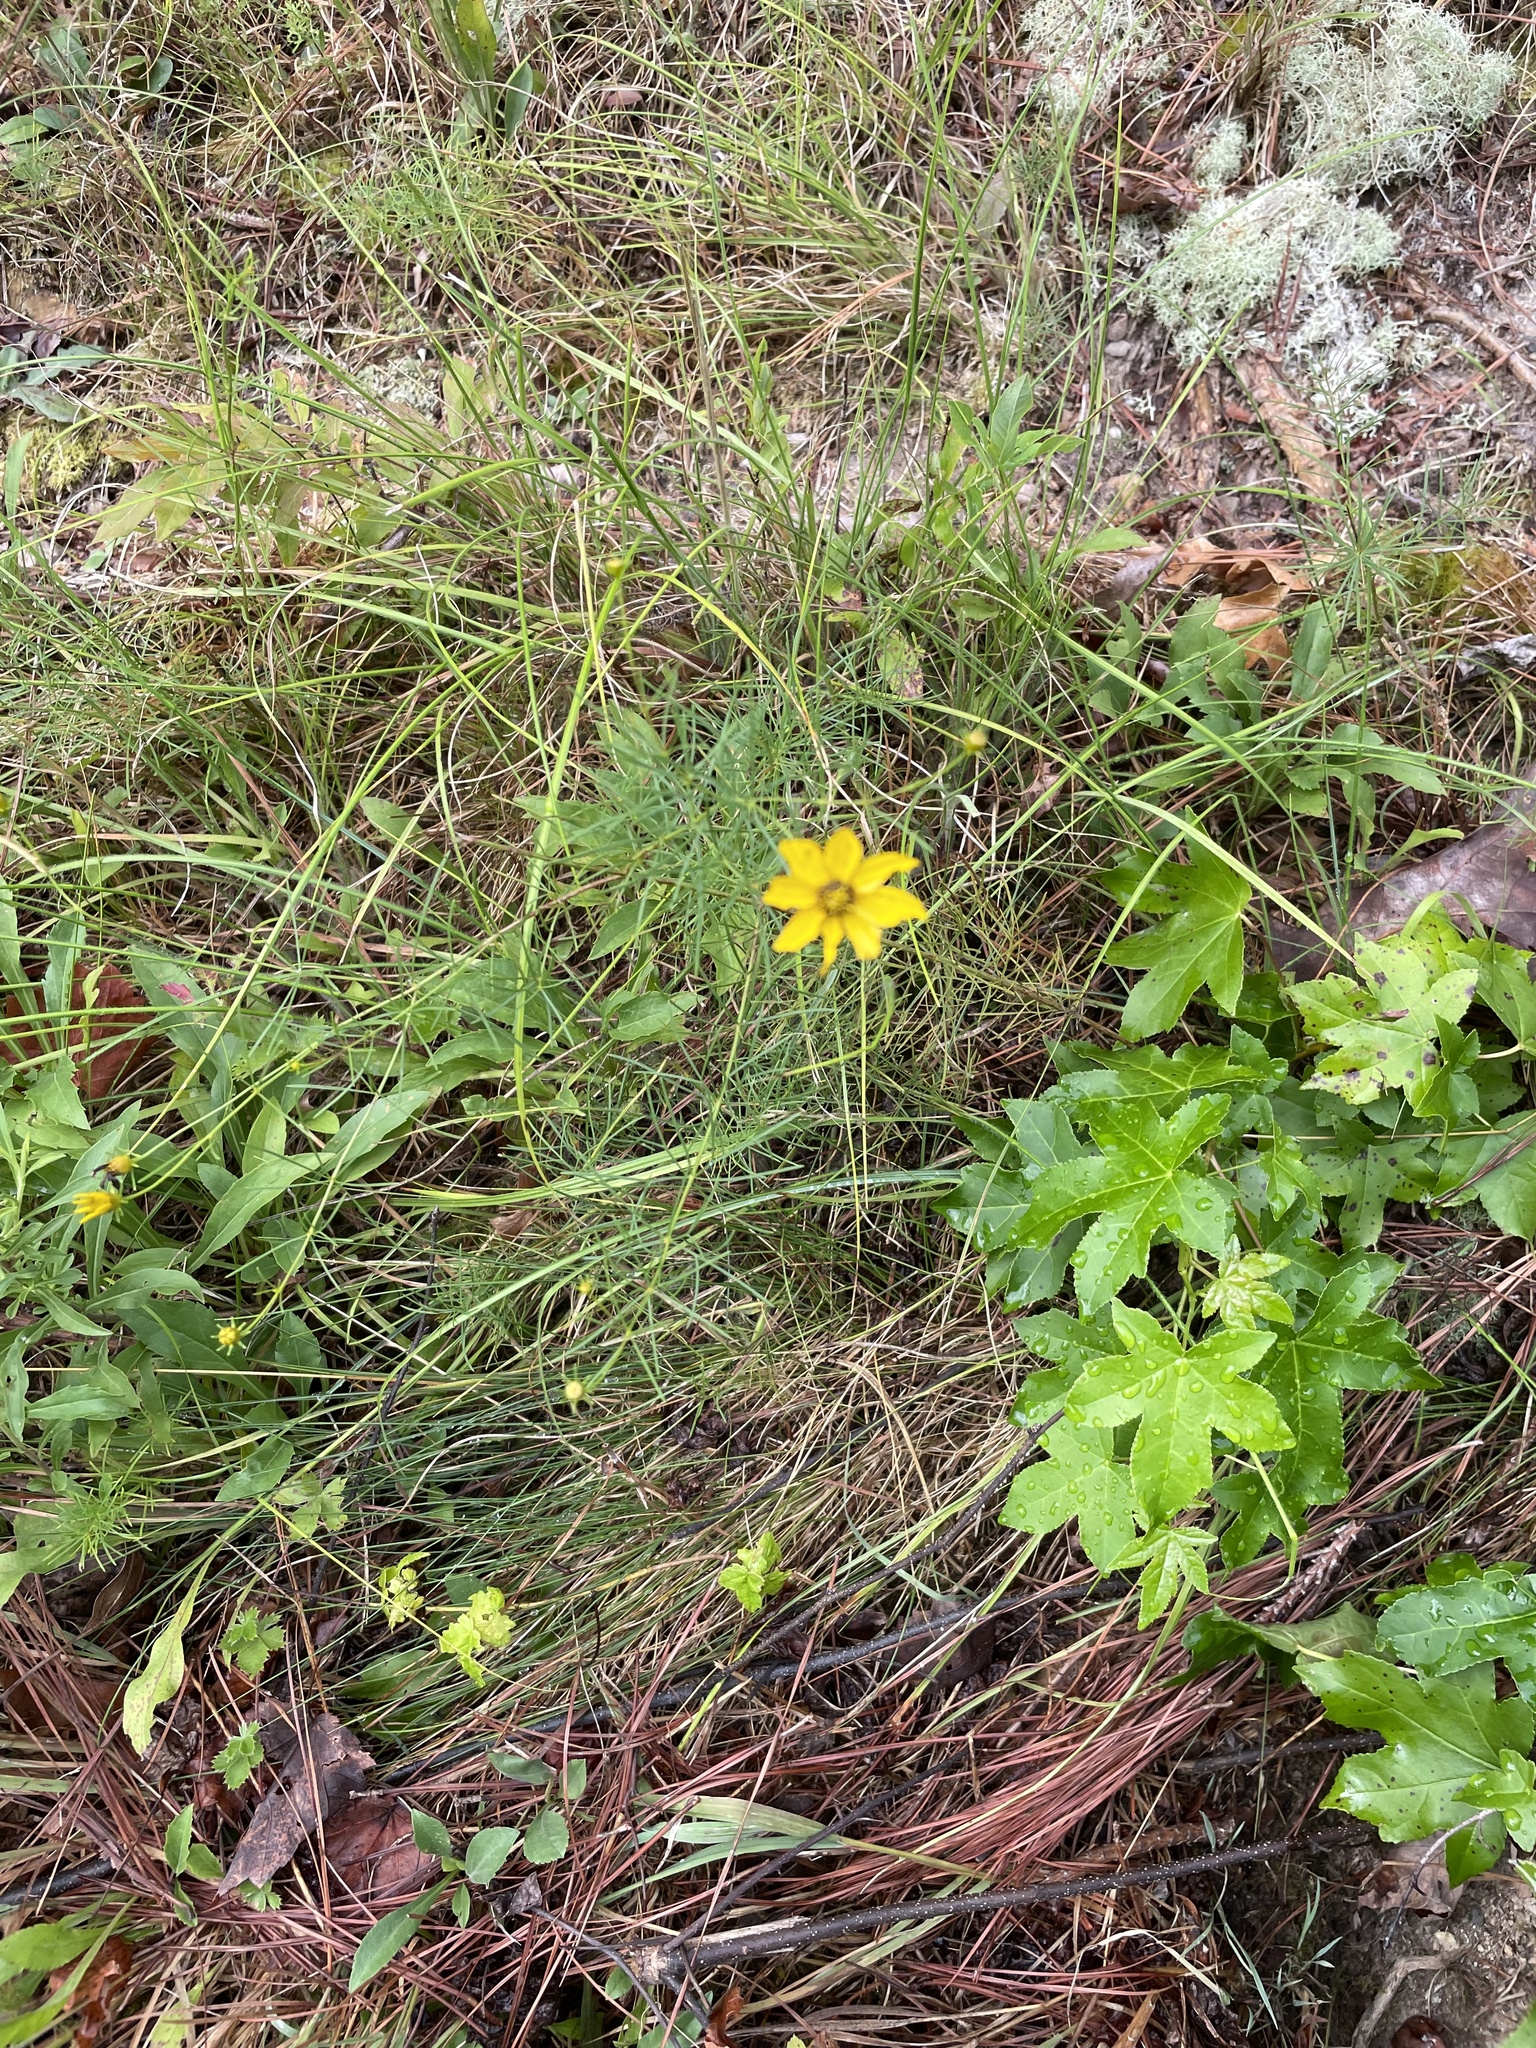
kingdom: Plantae
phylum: Tracheophyta
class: Magnoliopsida
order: Asterales
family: Asteraceae
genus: Coreopsis
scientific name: Coreopsis verticillata
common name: Whorled tickseed
